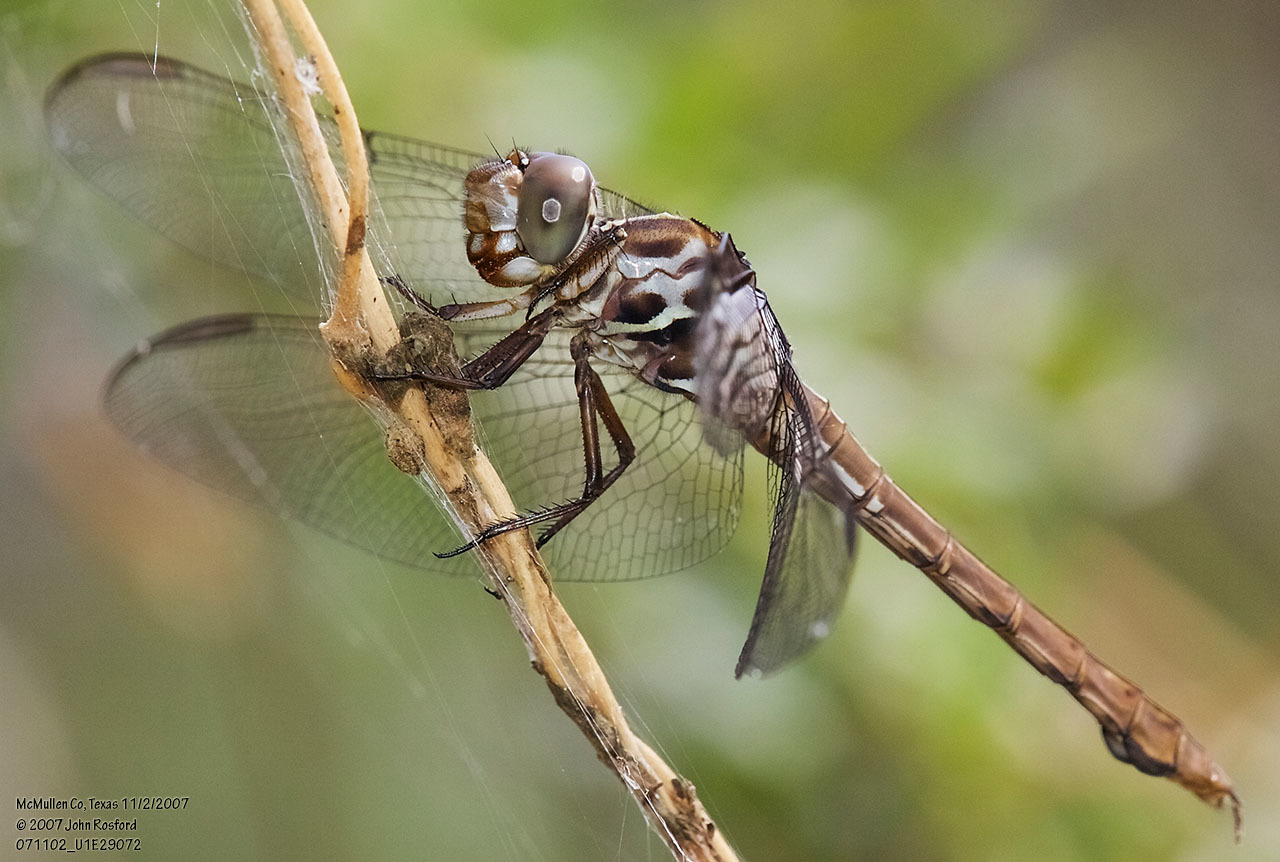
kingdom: Animalia
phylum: Arthropoda
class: Insecta
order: Odonata
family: Libellulidae
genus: Orthemis
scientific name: Orthemis ferruginea
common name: Roseate skimmer
